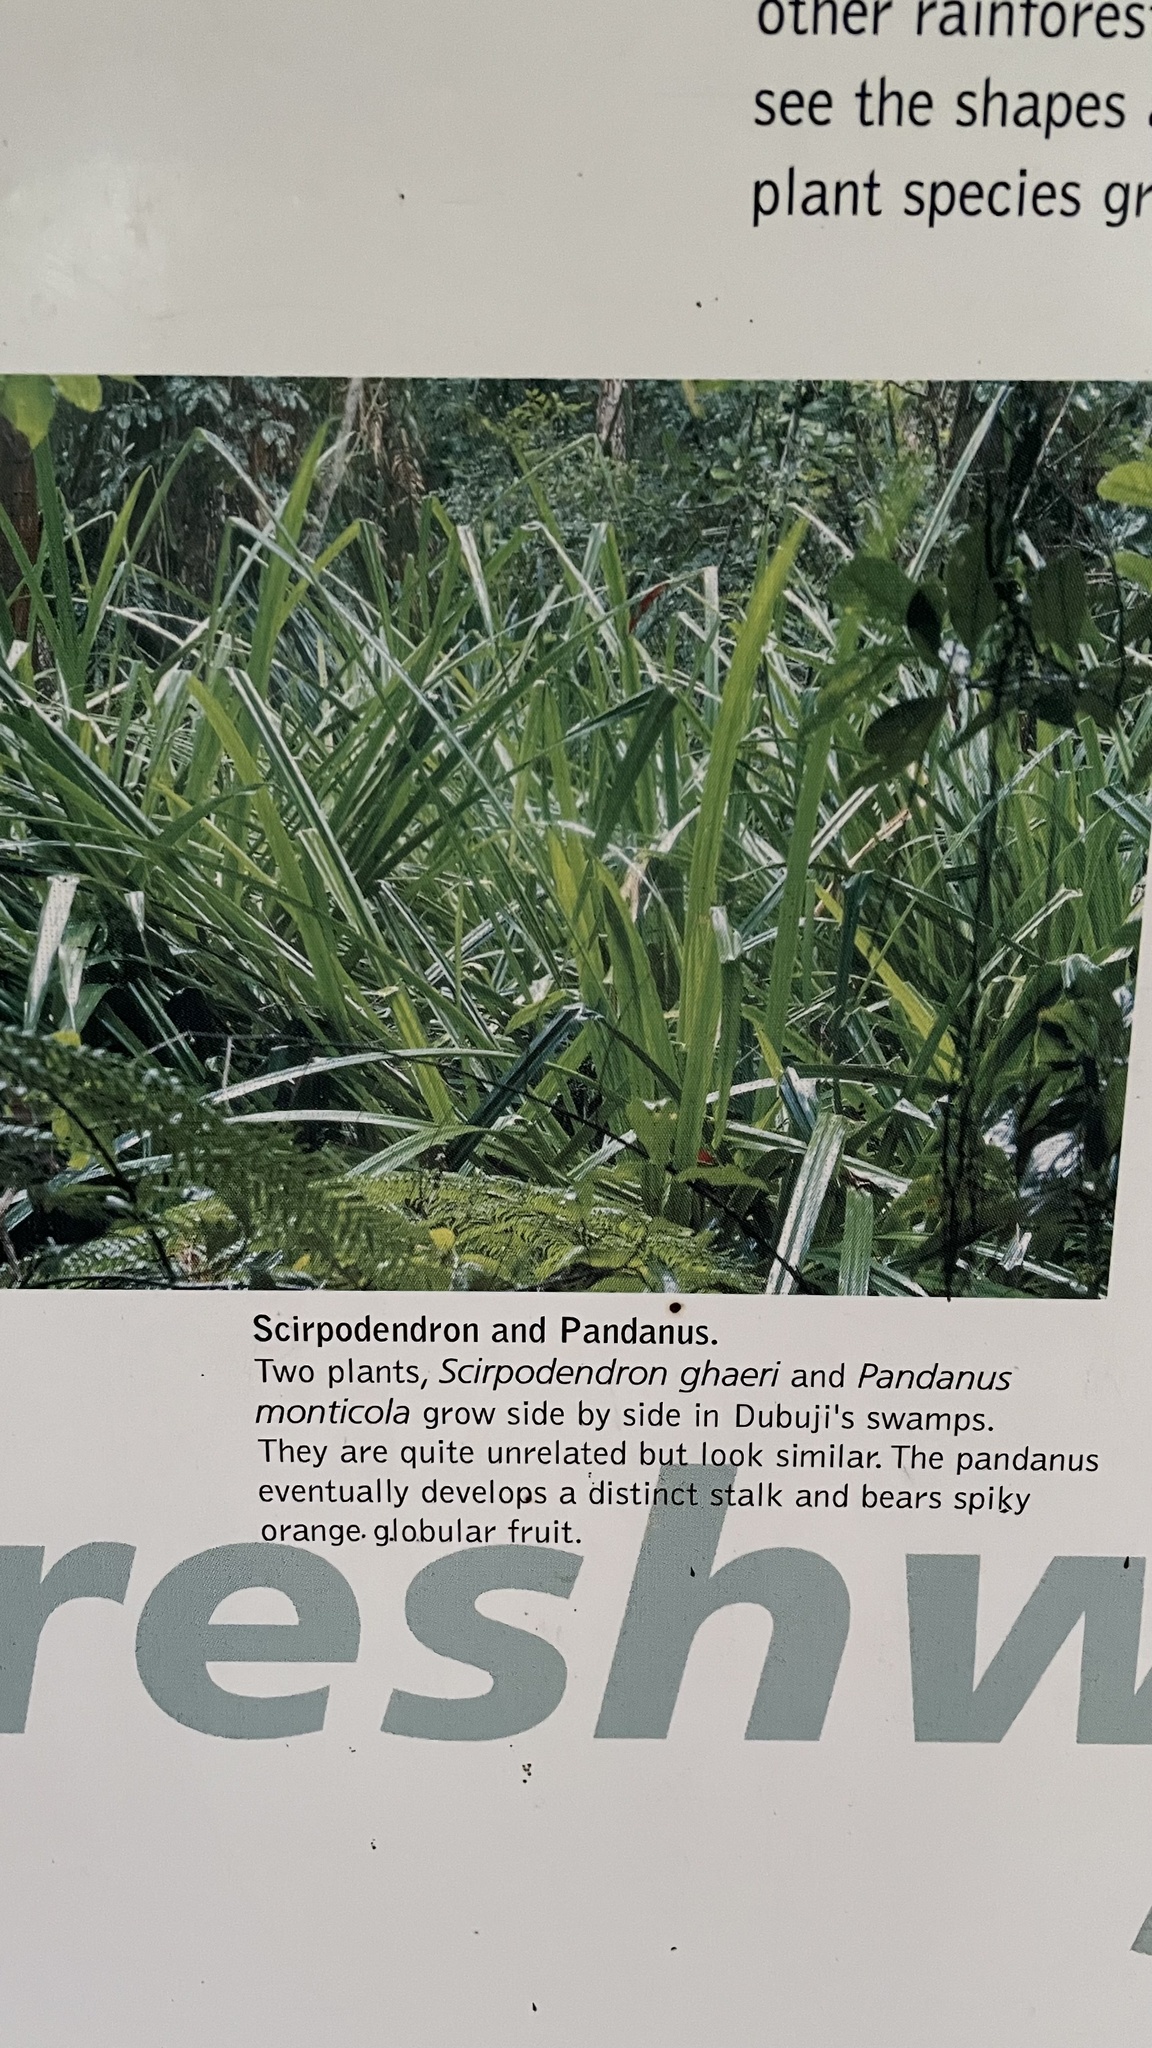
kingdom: Plantae
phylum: Tracheophyta
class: Liliopsida
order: Poales
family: Cyperaceae
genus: Scirpodendron
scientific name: Scirpodendron ghaeri
